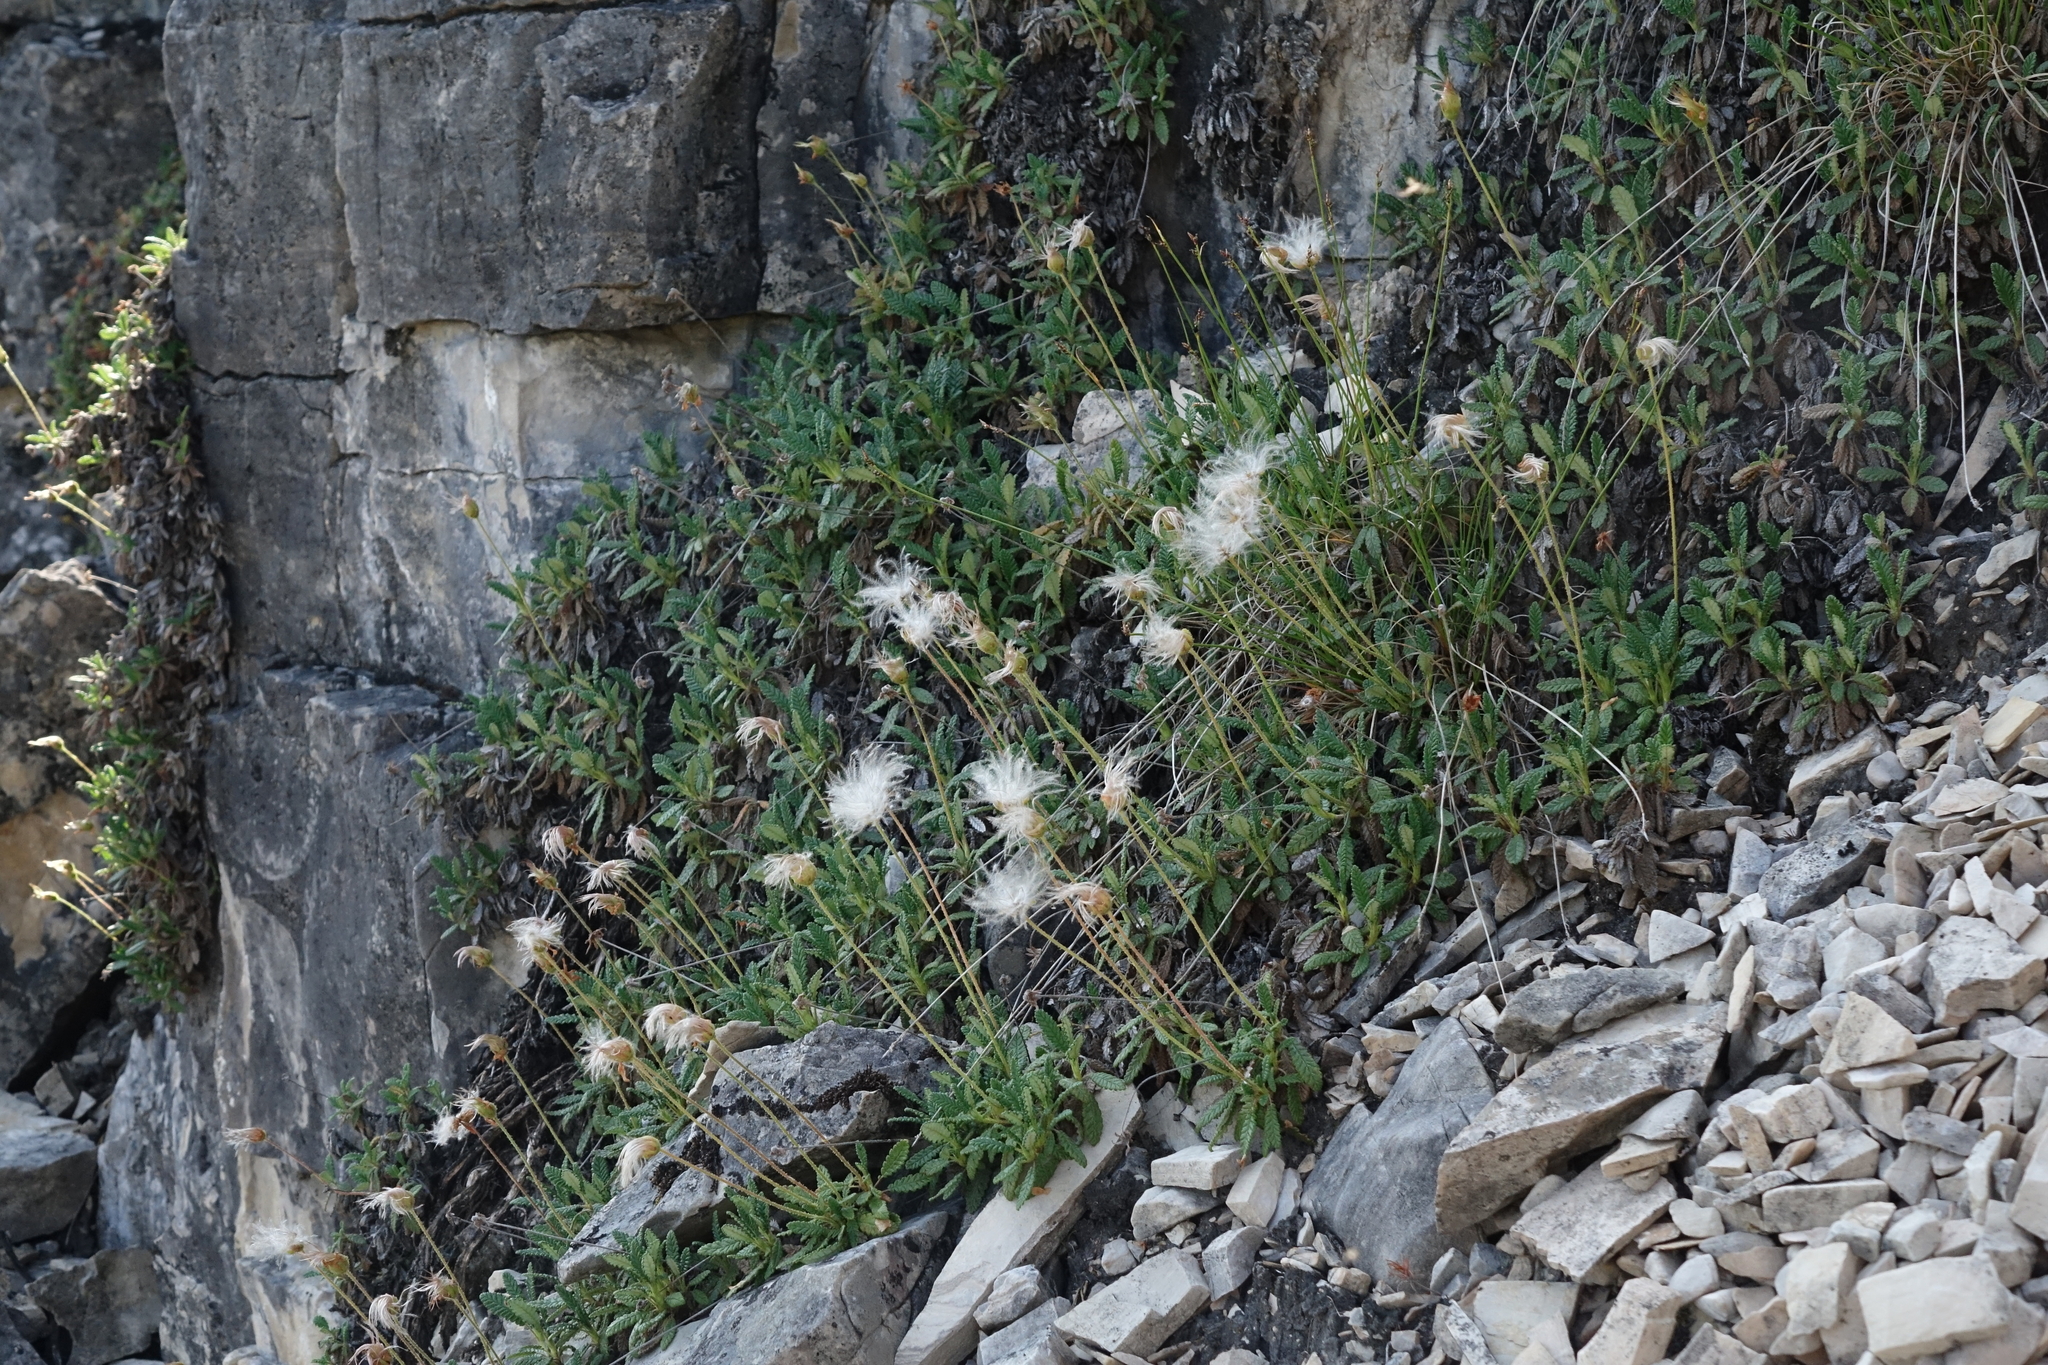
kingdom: Plantae
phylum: Tracheophyta
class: Magnoliopsida
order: Rosales
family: Rosaceae
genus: Dryas
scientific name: Dryas octopetala
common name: Eight-petal mountain-avens
